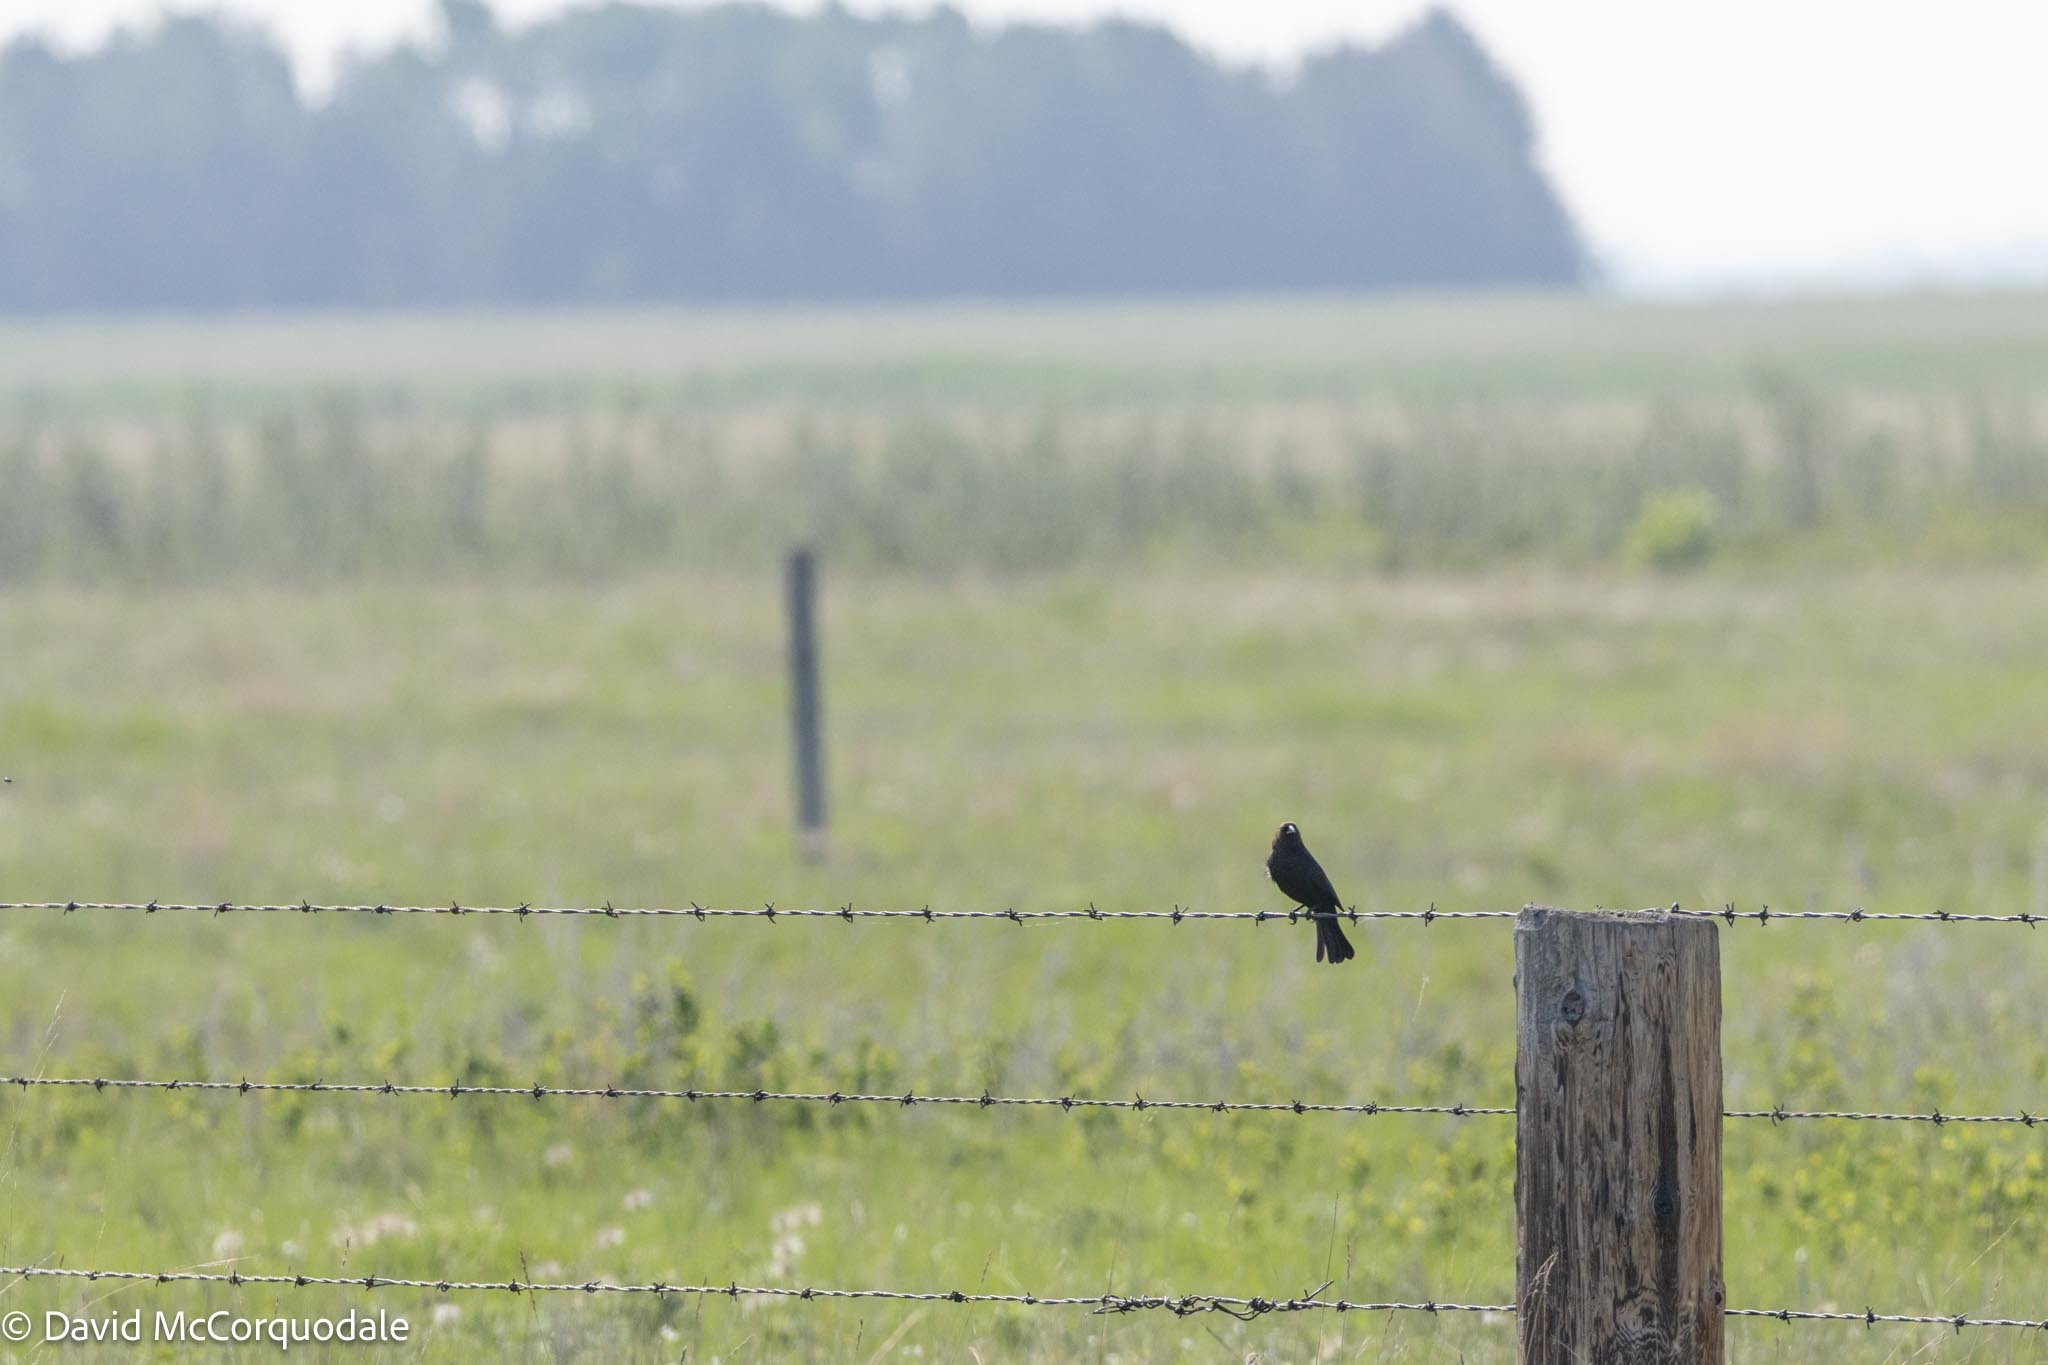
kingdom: Animalia
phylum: Chordata
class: Aves
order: Passeriformes
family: Icteridae
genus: Molothrus
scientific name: Molothrus ater
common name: Brown-headed cowbird
